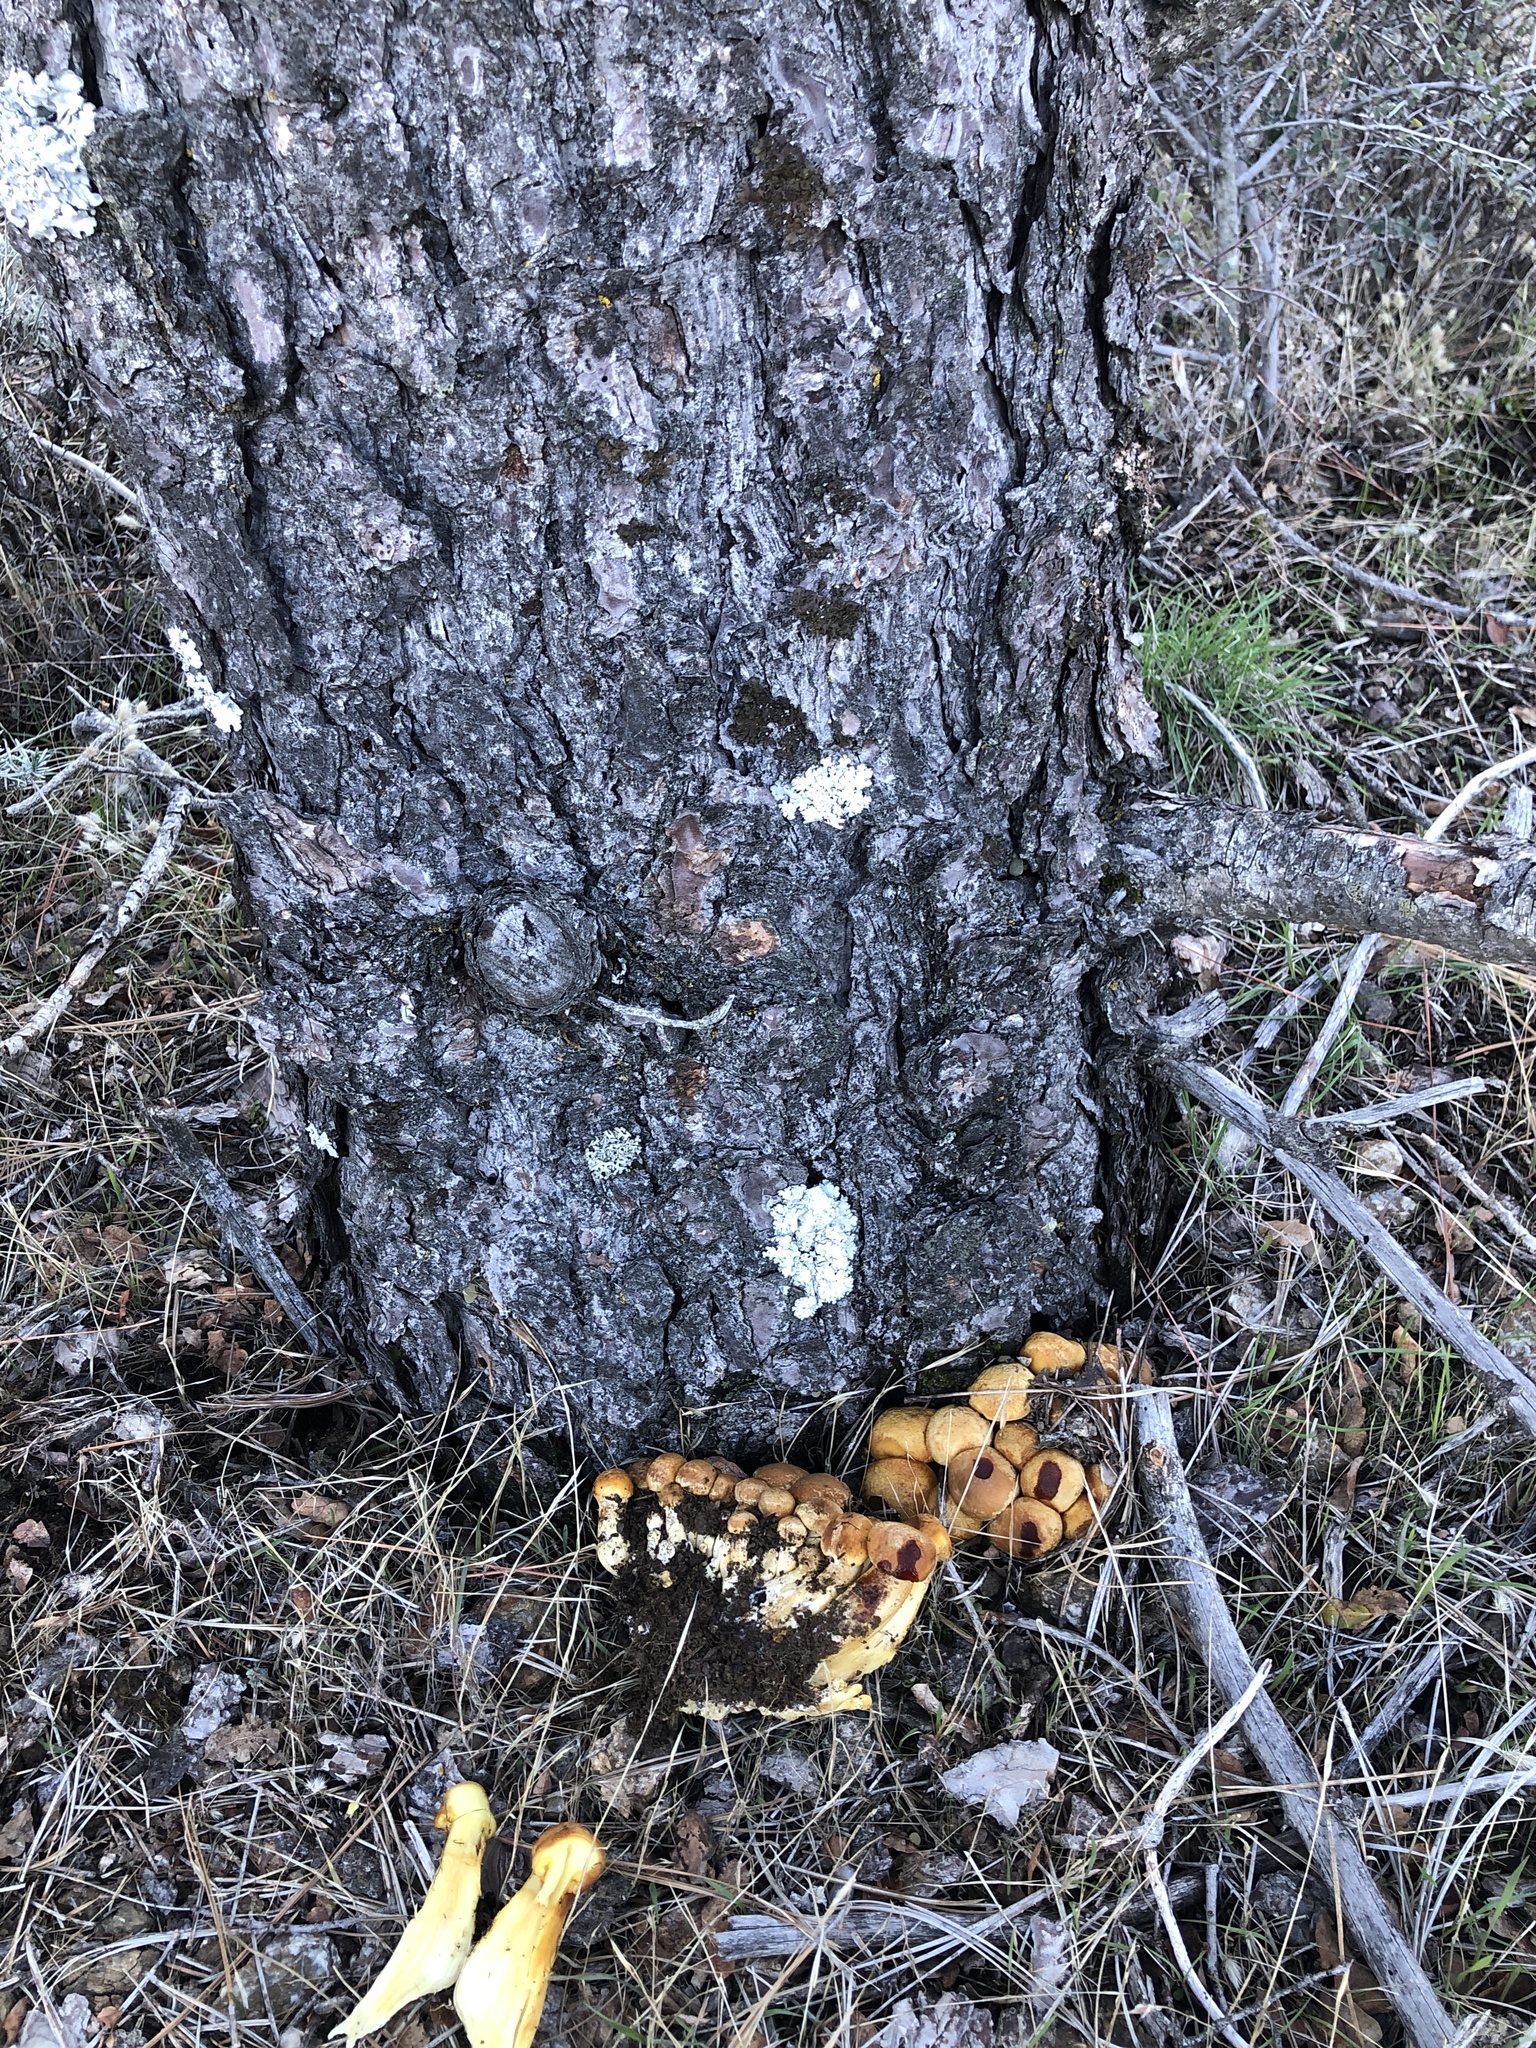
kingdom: Fungi
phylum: Basidiomycota
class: Agaricomycetes
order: Agaricales
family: Hymenogastraceae
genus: Gymnopilus
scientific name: Gymnopilus ventricosus
